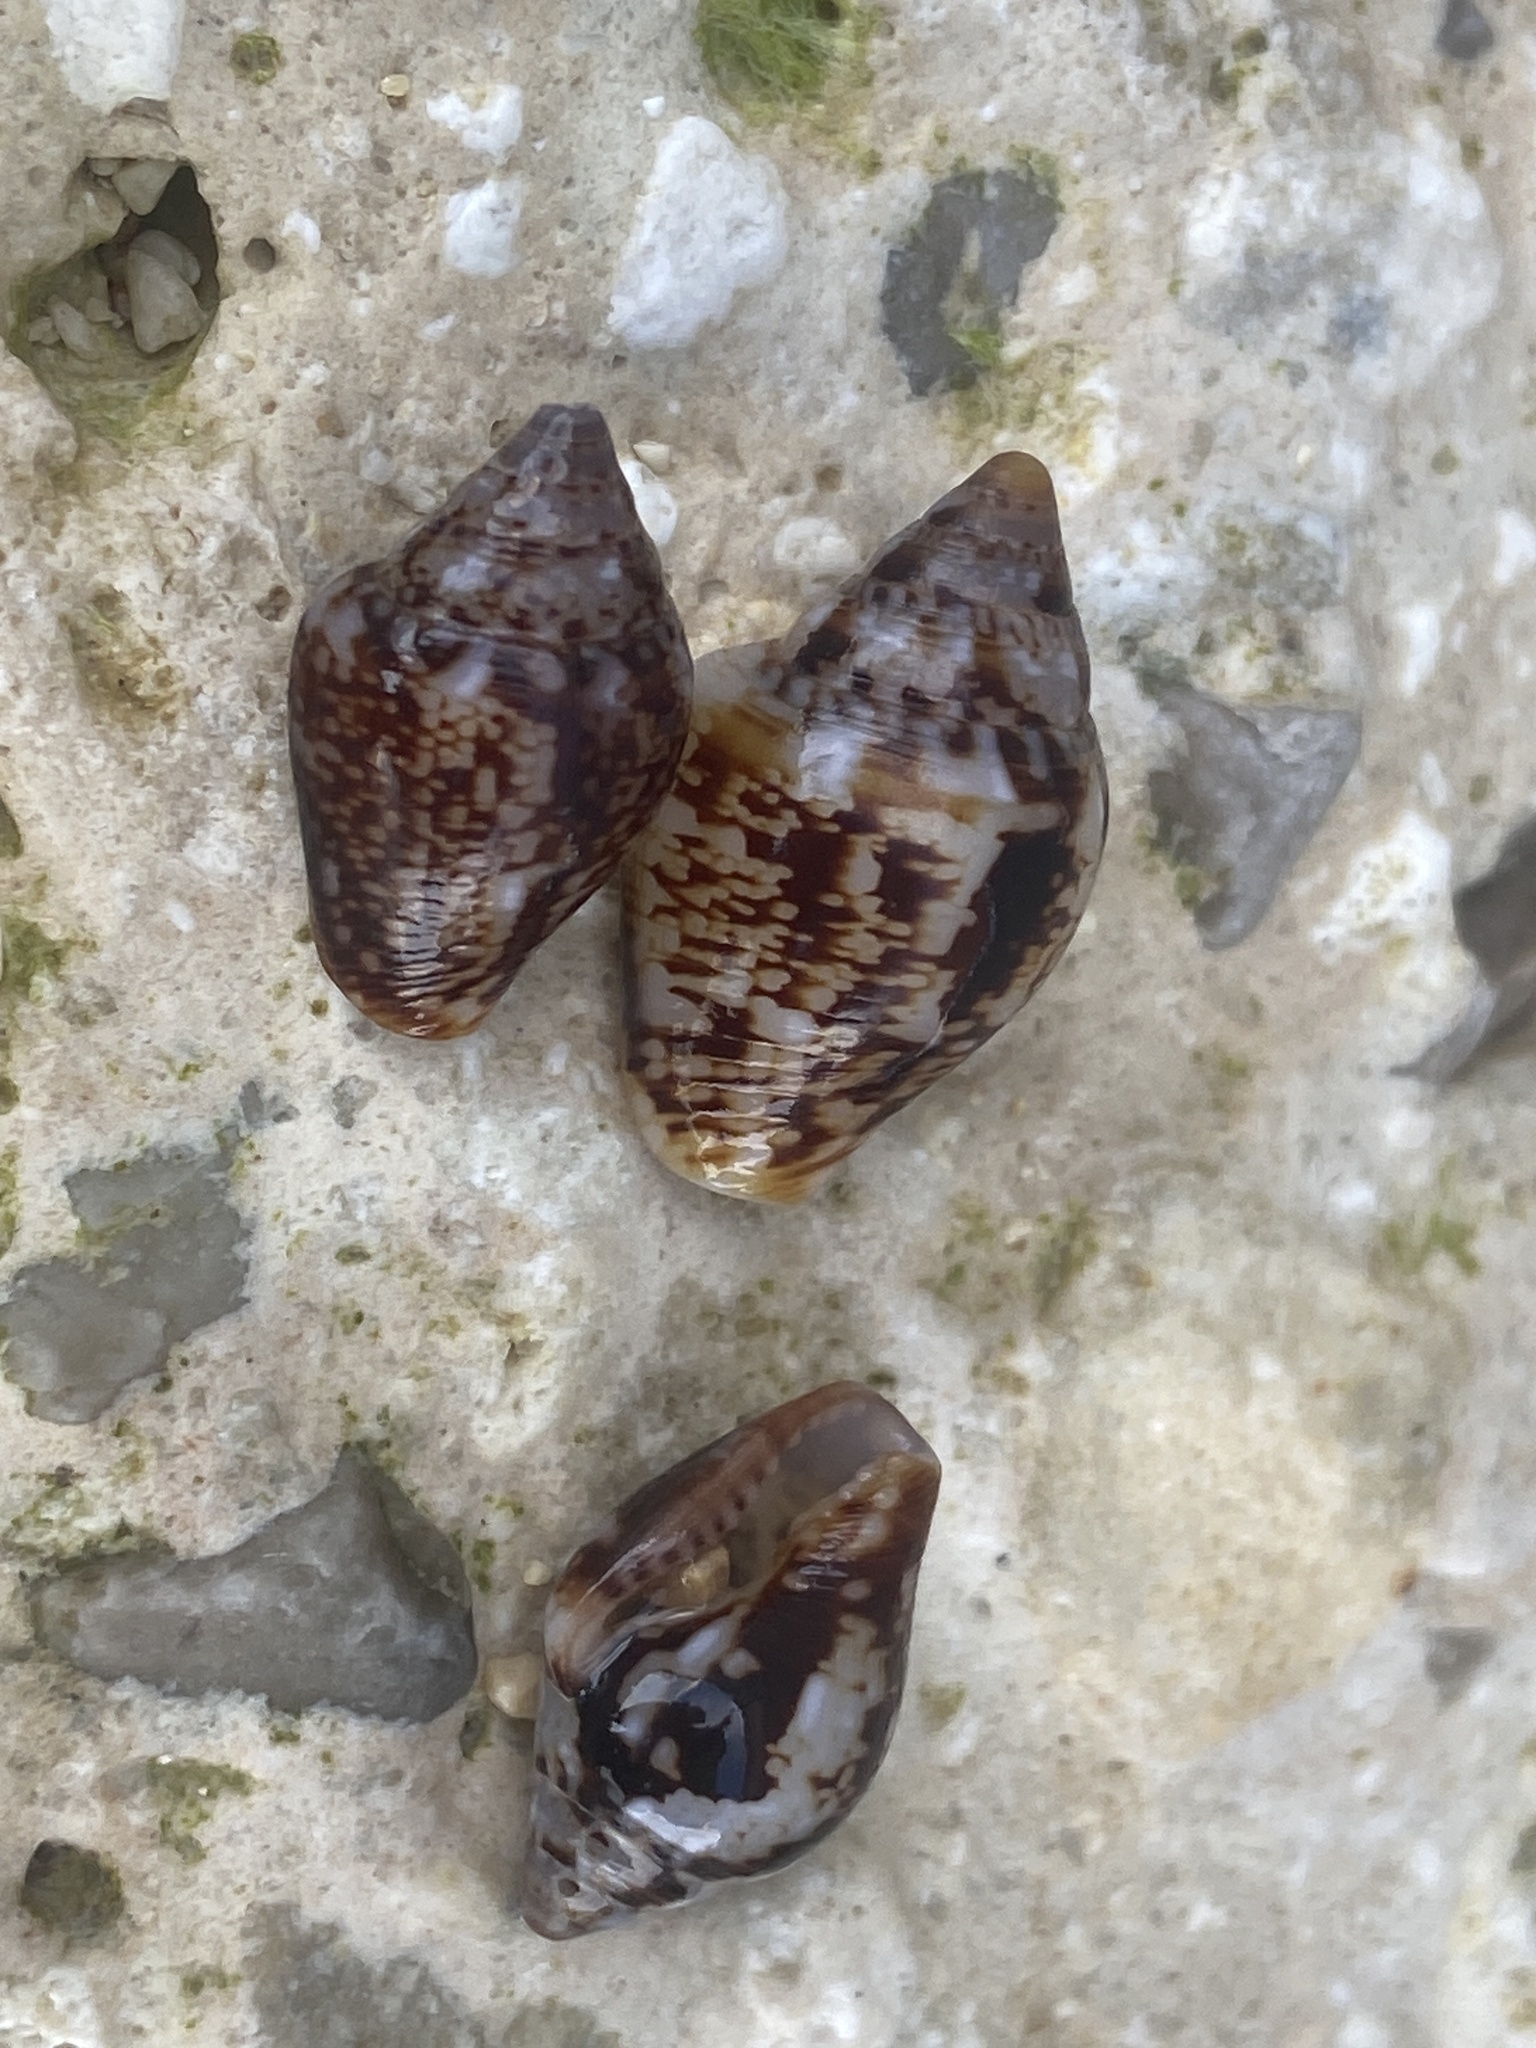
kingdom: Animalia
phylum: Mollusca
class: Gastropoda
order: Neogastropoda
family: Columbellidae
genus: Columbella
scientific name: Columbella rustica
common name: Rustic dove shell
